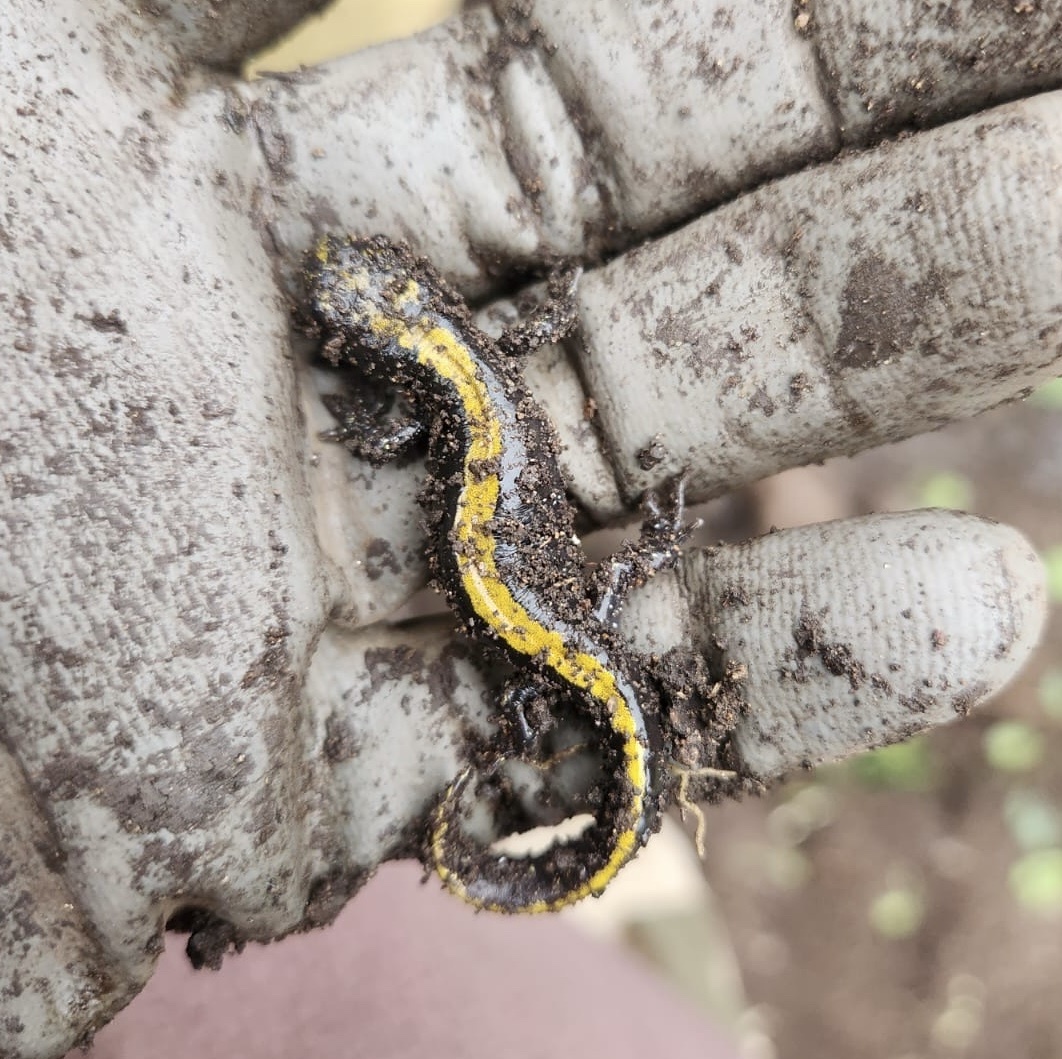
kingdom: Animalia
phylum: Chordata
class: Amphibia
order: Caudata
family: Ambystomatidae
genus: Ambystoma
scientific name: Ambystoma macrodactylum
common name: Long-toed salamander
